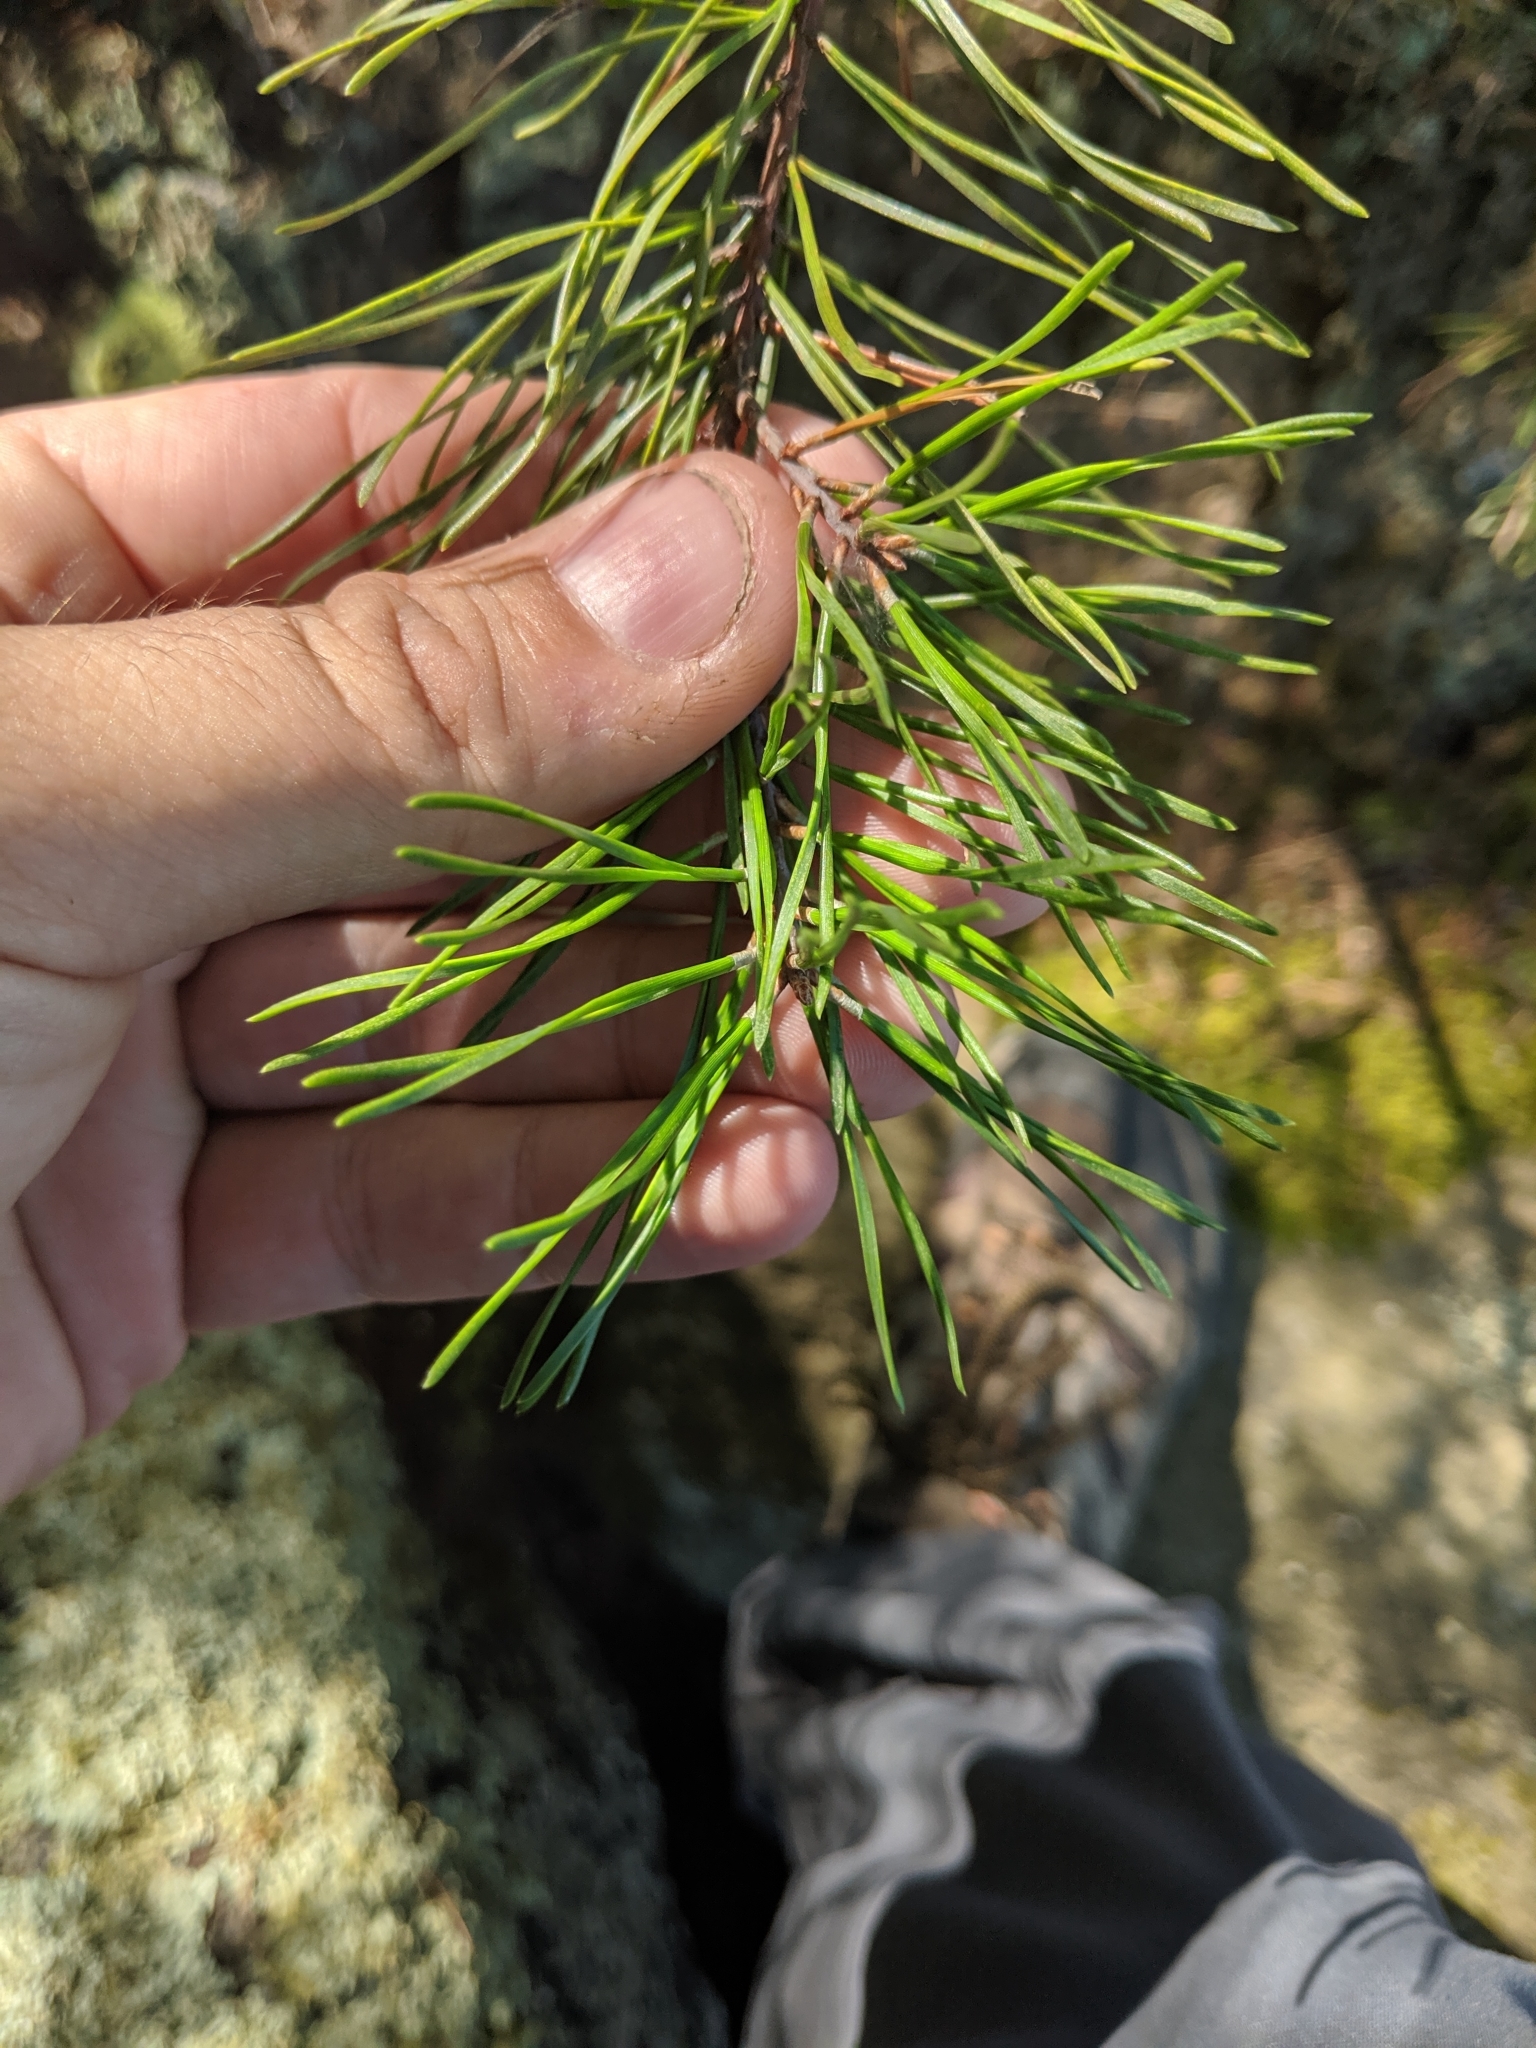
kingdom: Plantae
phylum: Tracheophyta
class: Pinopsida
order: Pinales
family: Pinaceae
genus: Pinus
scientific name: Pinus virginiana
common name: Scrub pine
